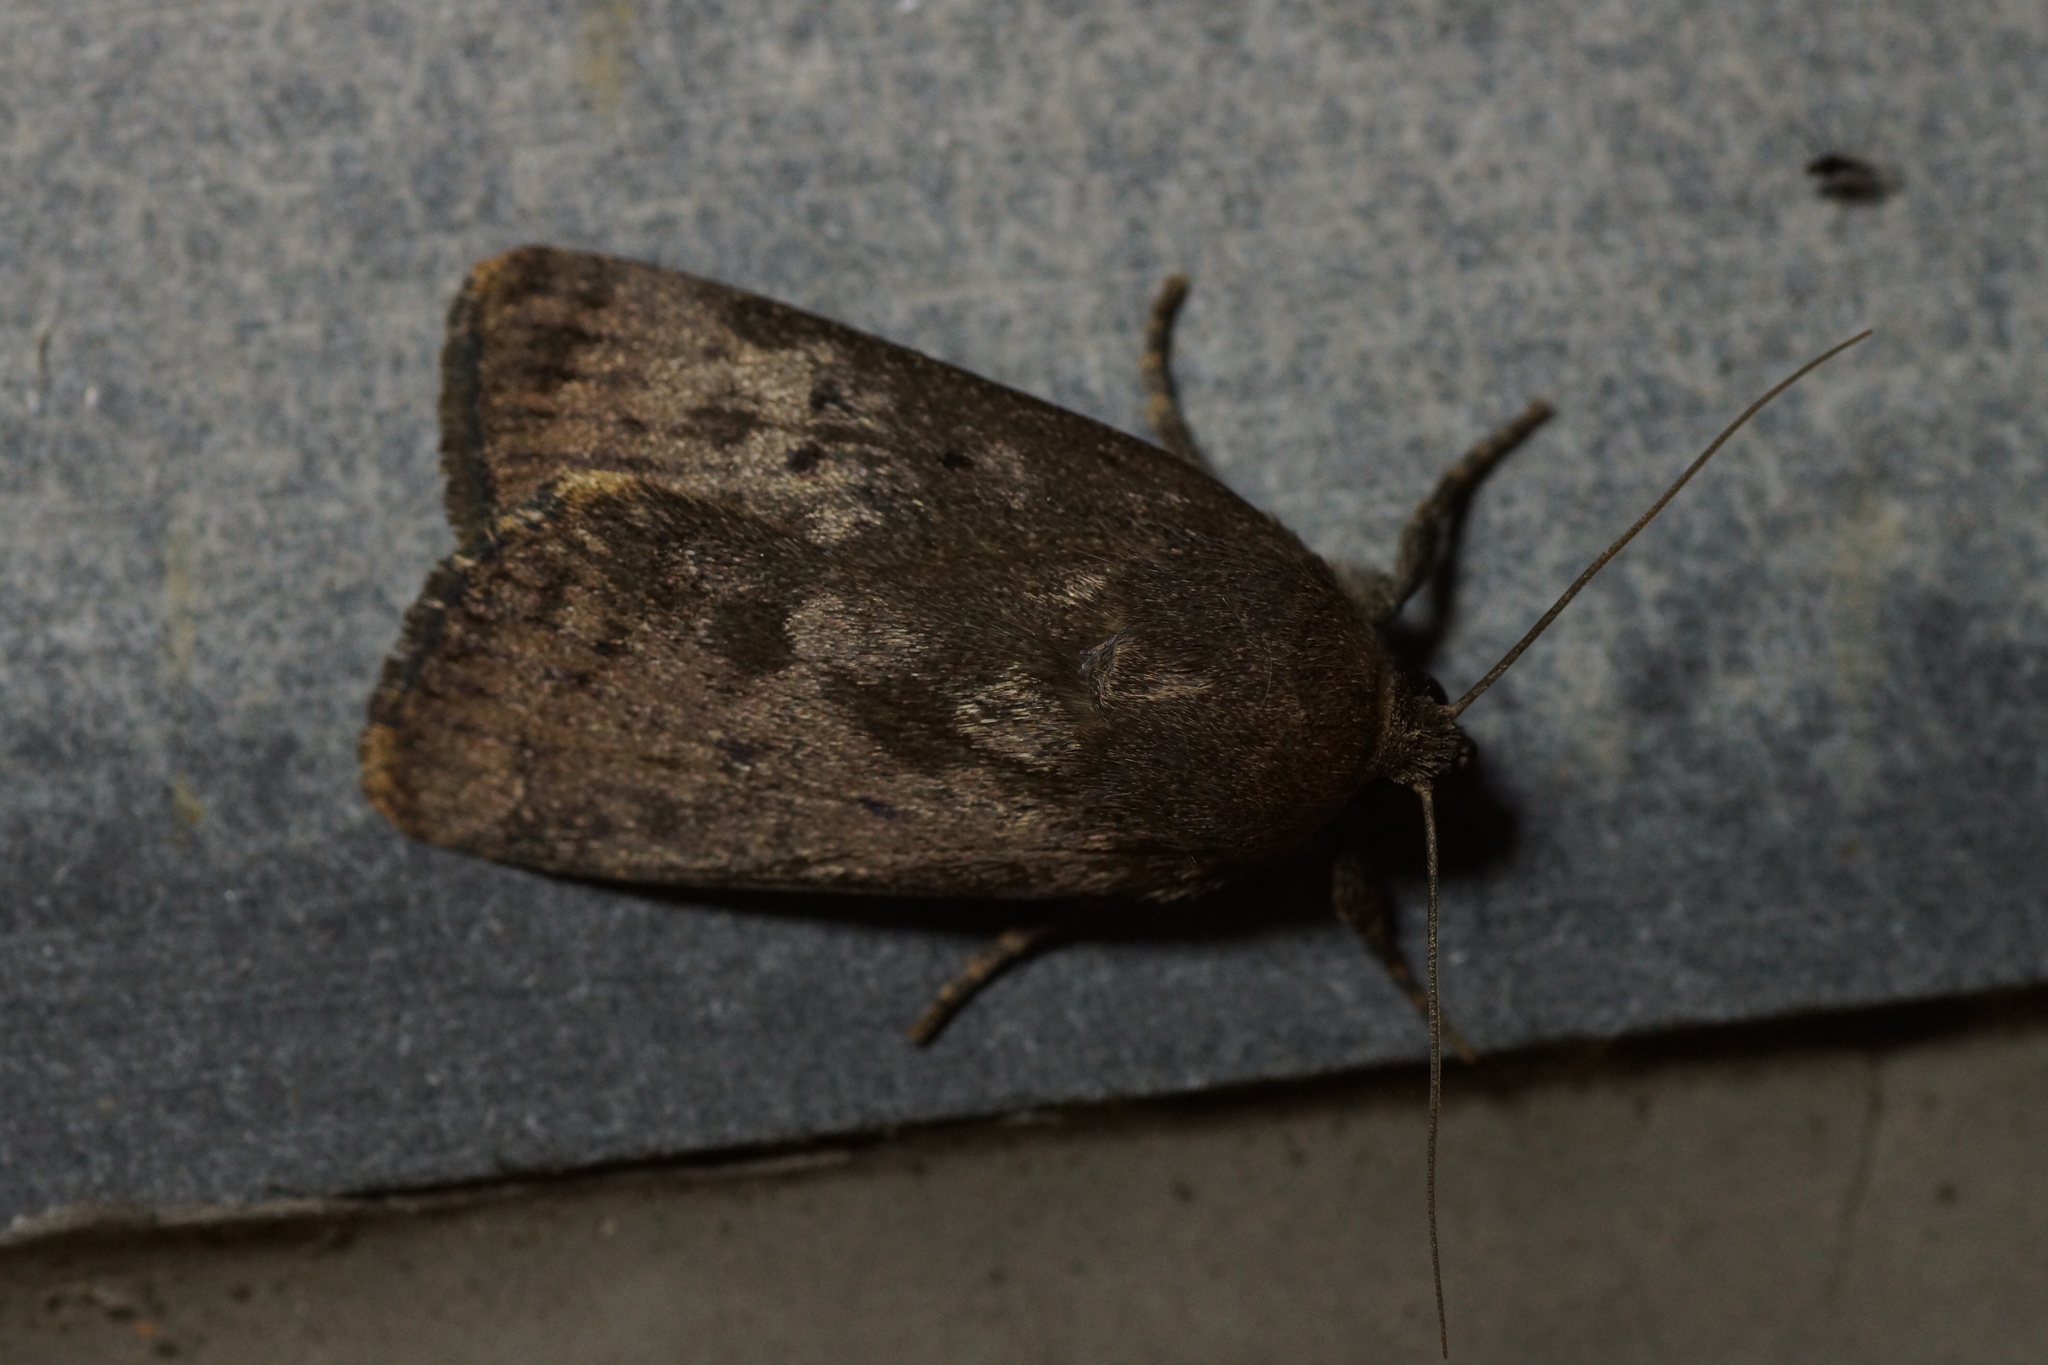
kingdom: Animalia
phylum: Arthropoda
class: Insecta
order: Lepidoptera
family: Noctuidae
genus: Amphipyra
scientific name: Amphipyra tragopoginis
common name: Mouse moth
